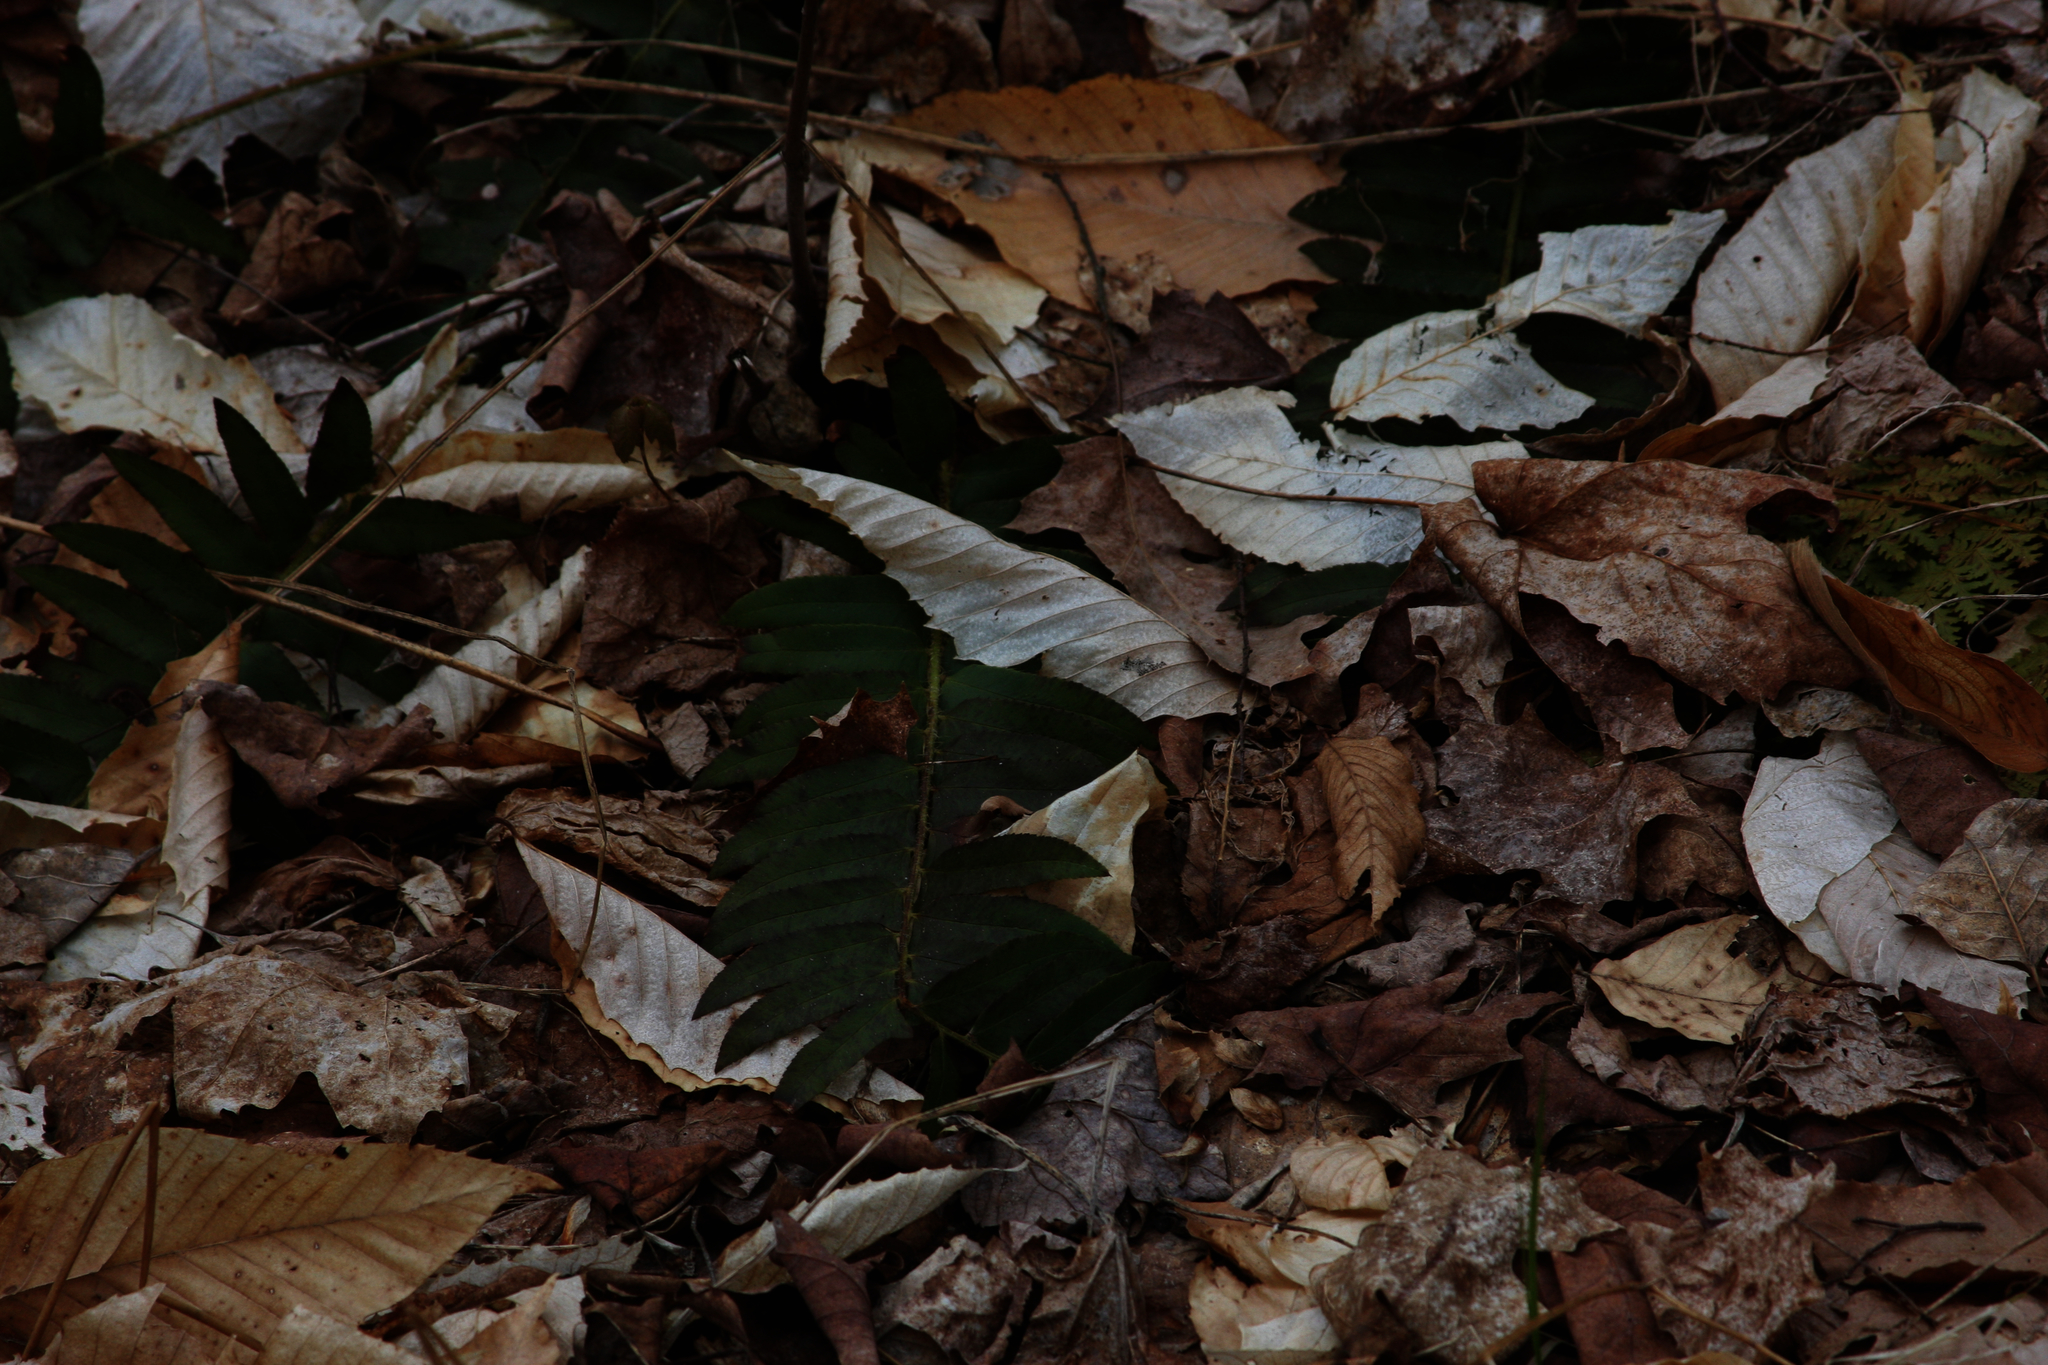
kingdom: Plantae
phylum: Tracheophyta
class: Polypodiopsida
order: Polypodiales
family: Dryopteridaceae
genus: Polystichum
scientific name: Polystichum acrostichoides
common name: Christmas fern
